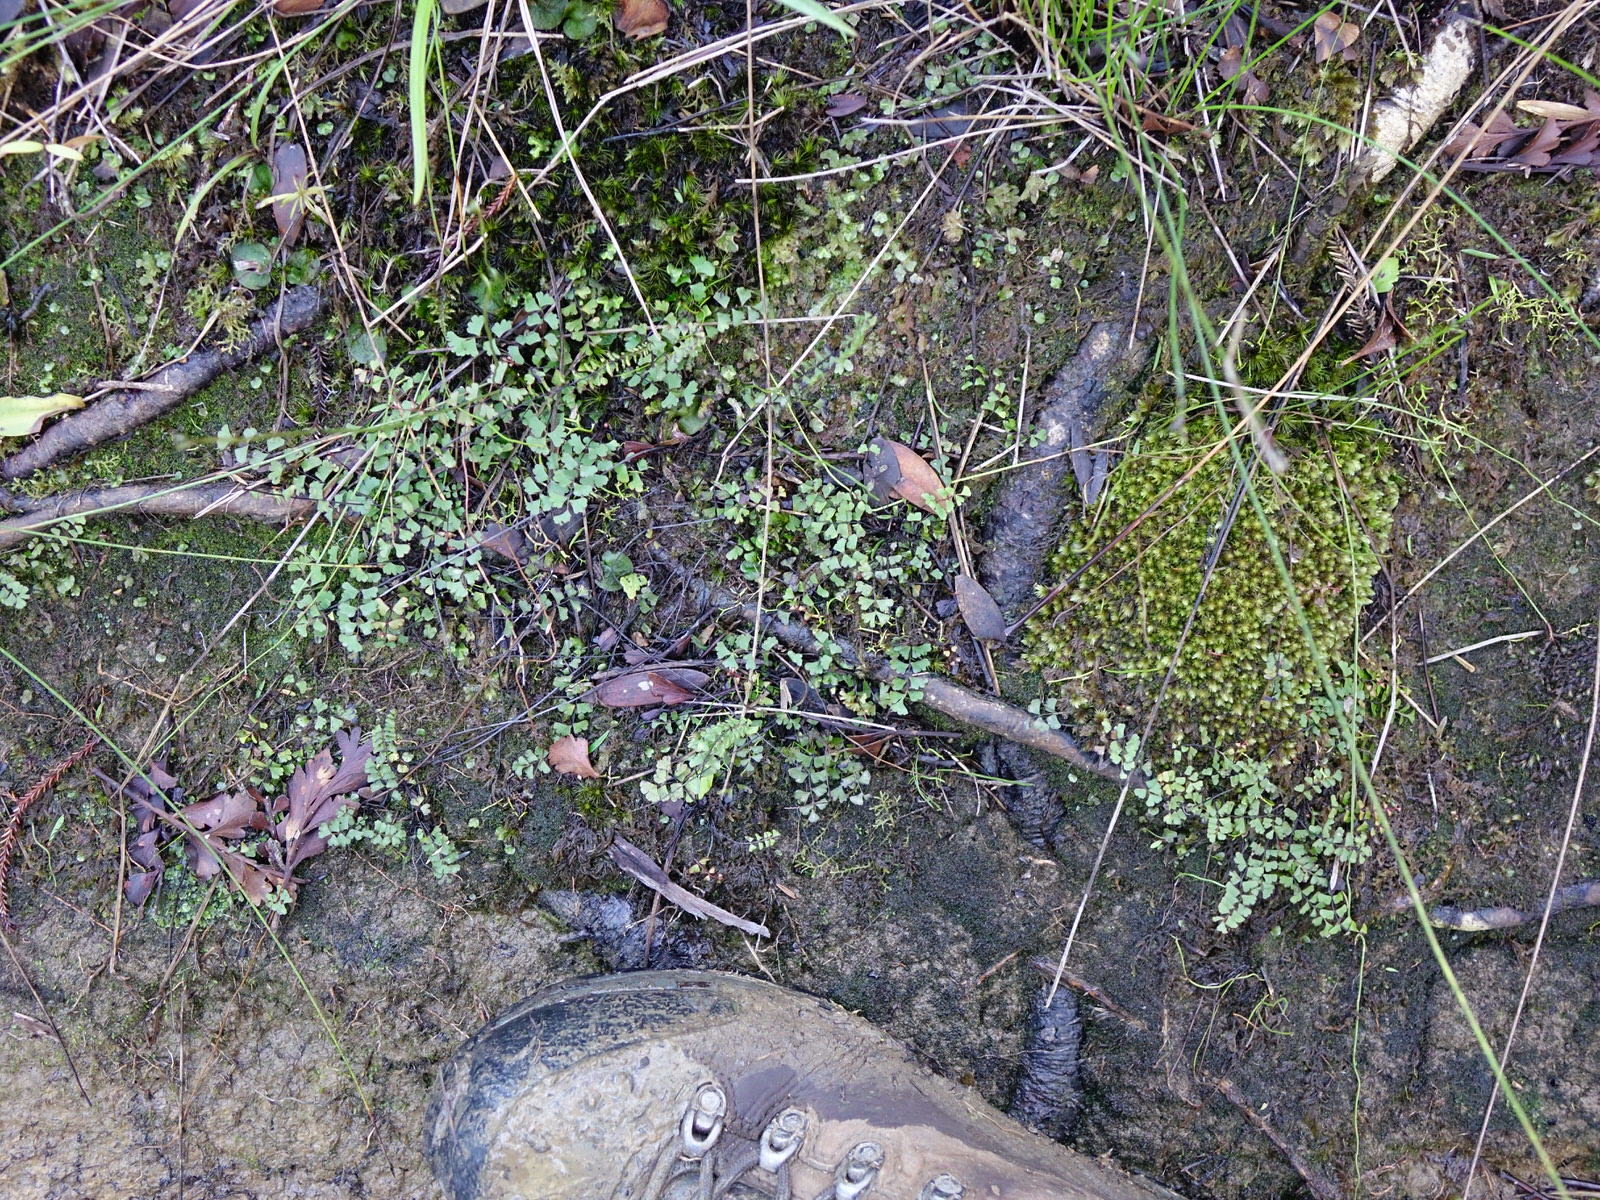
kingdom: Plantae
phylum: Tracheophyta
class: Polypodiopsida
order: Polypodiales
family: Lindsaeaceae
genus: Lindsaea
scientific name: Lindsaea linearis
